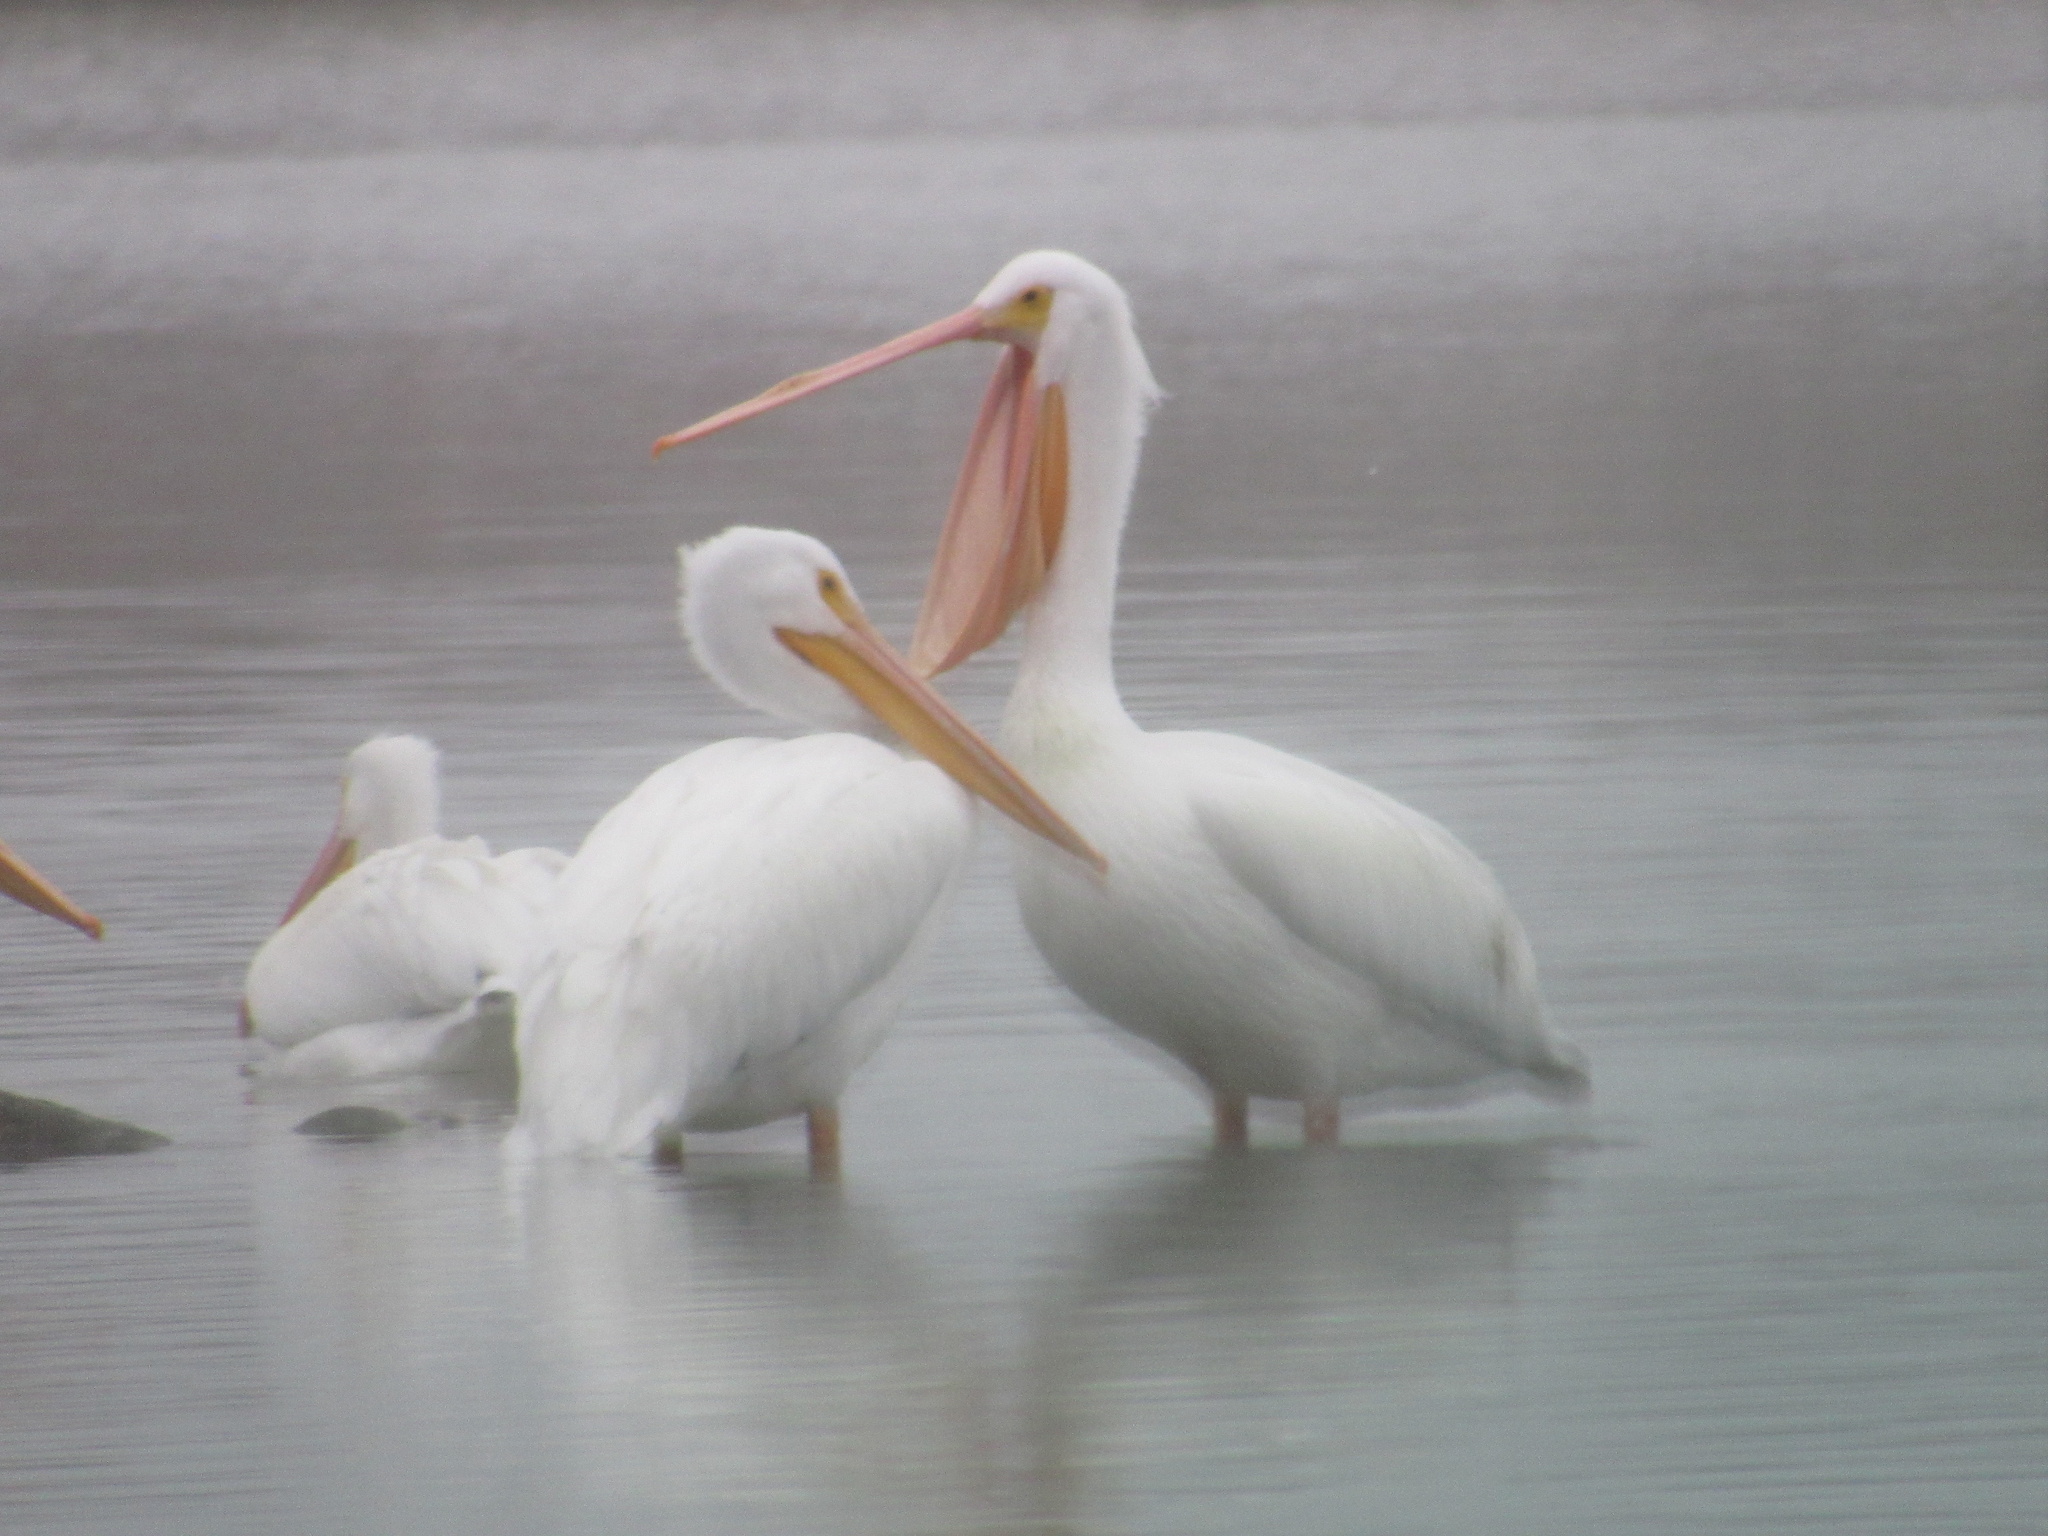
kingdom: Animalia
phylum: Chordata
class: Aves
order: Pelecaniformes
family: Pelecanidae
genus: Pelecanus
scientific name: Pelecanus erythrorhynchos
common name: American white pelican
